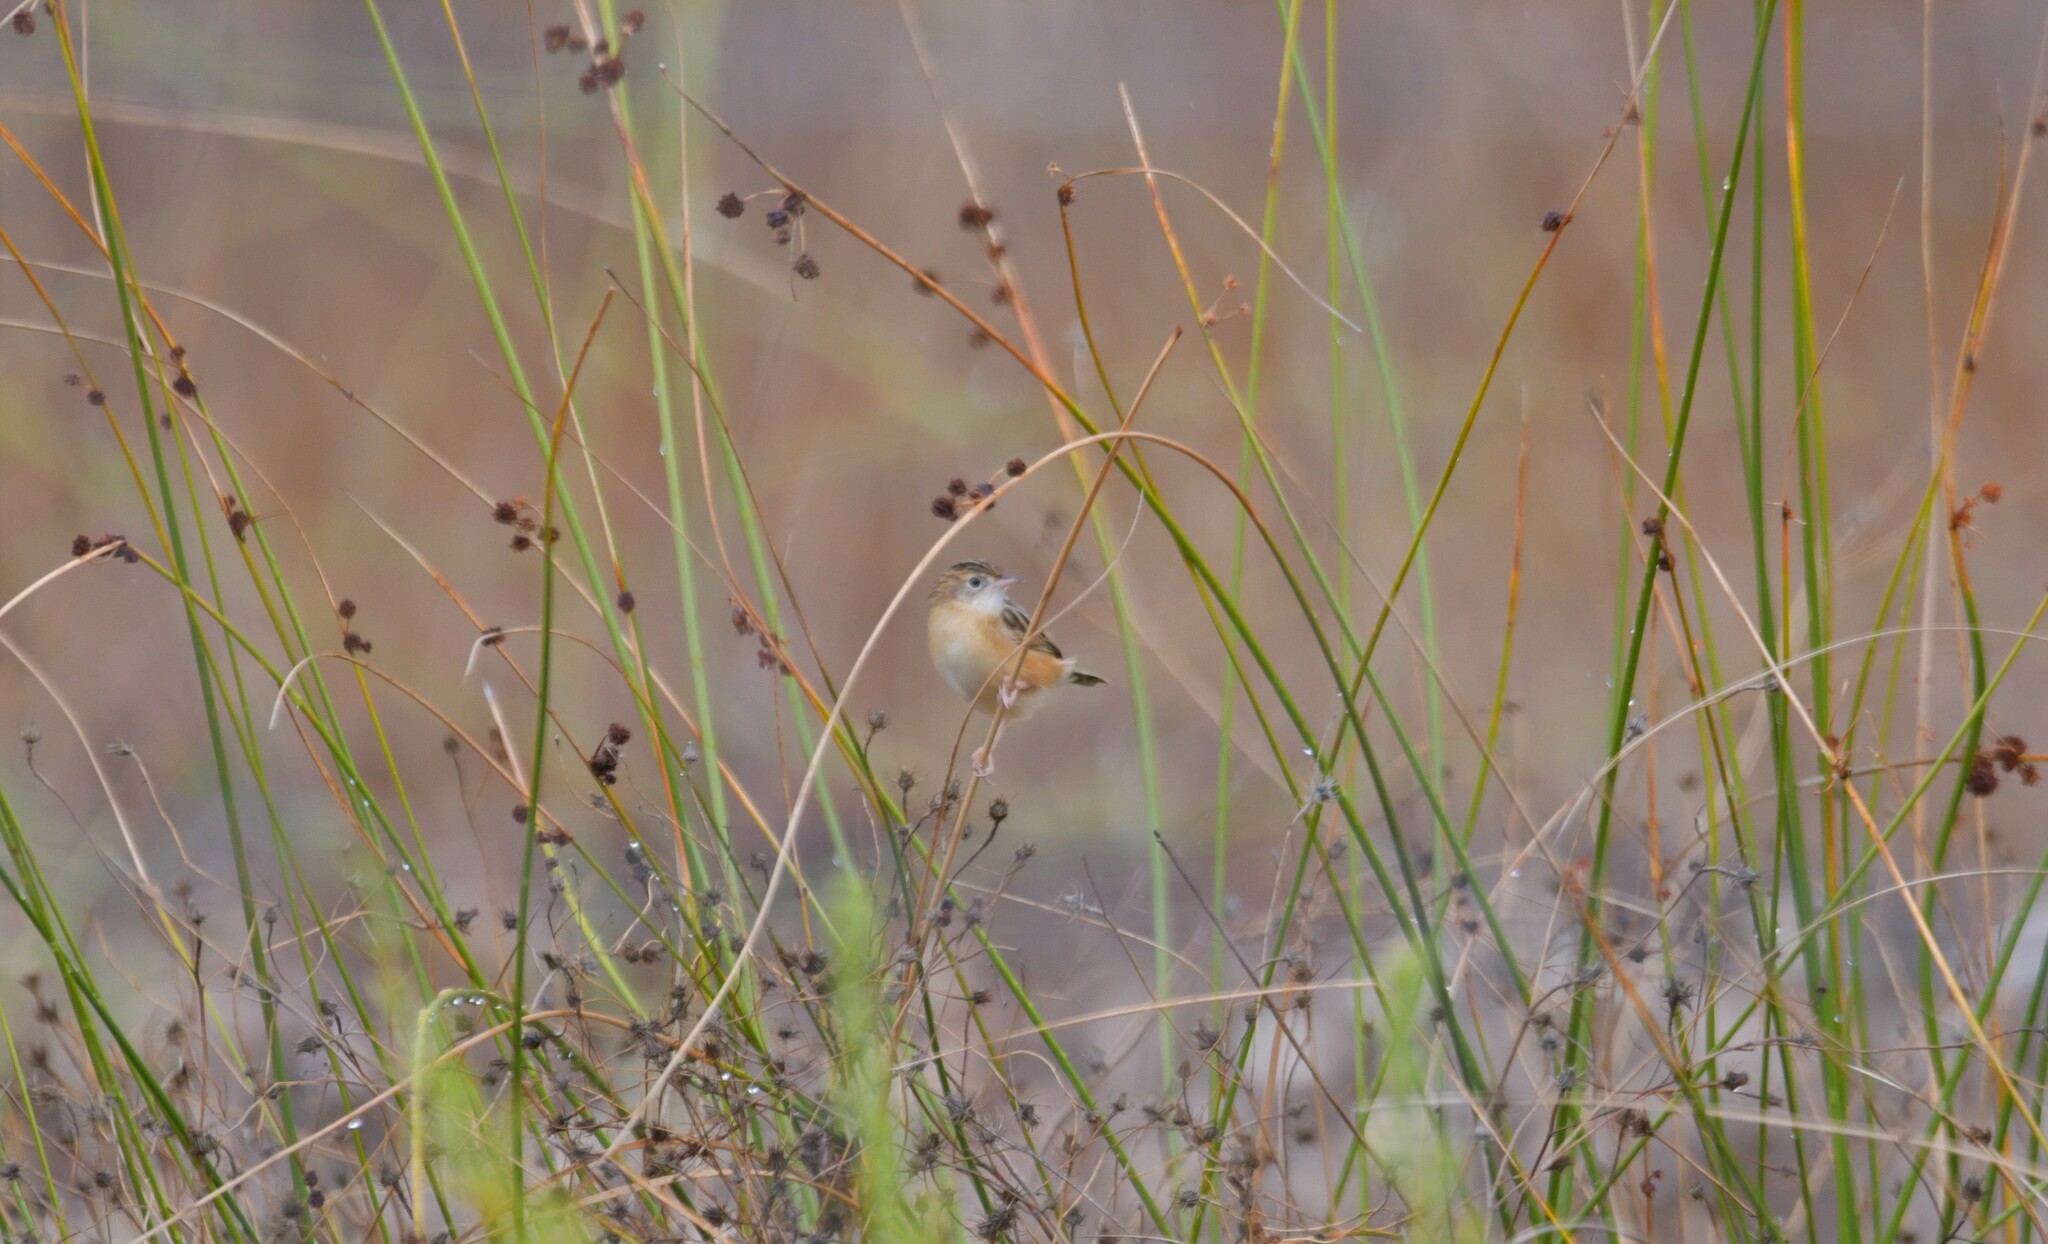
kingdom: Animalia
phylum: Chordata
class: Aves
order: Passeriformes
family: Cisticolidae
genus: Cisticola
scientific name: Cisticola juncidis
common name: Zitting cisticola
